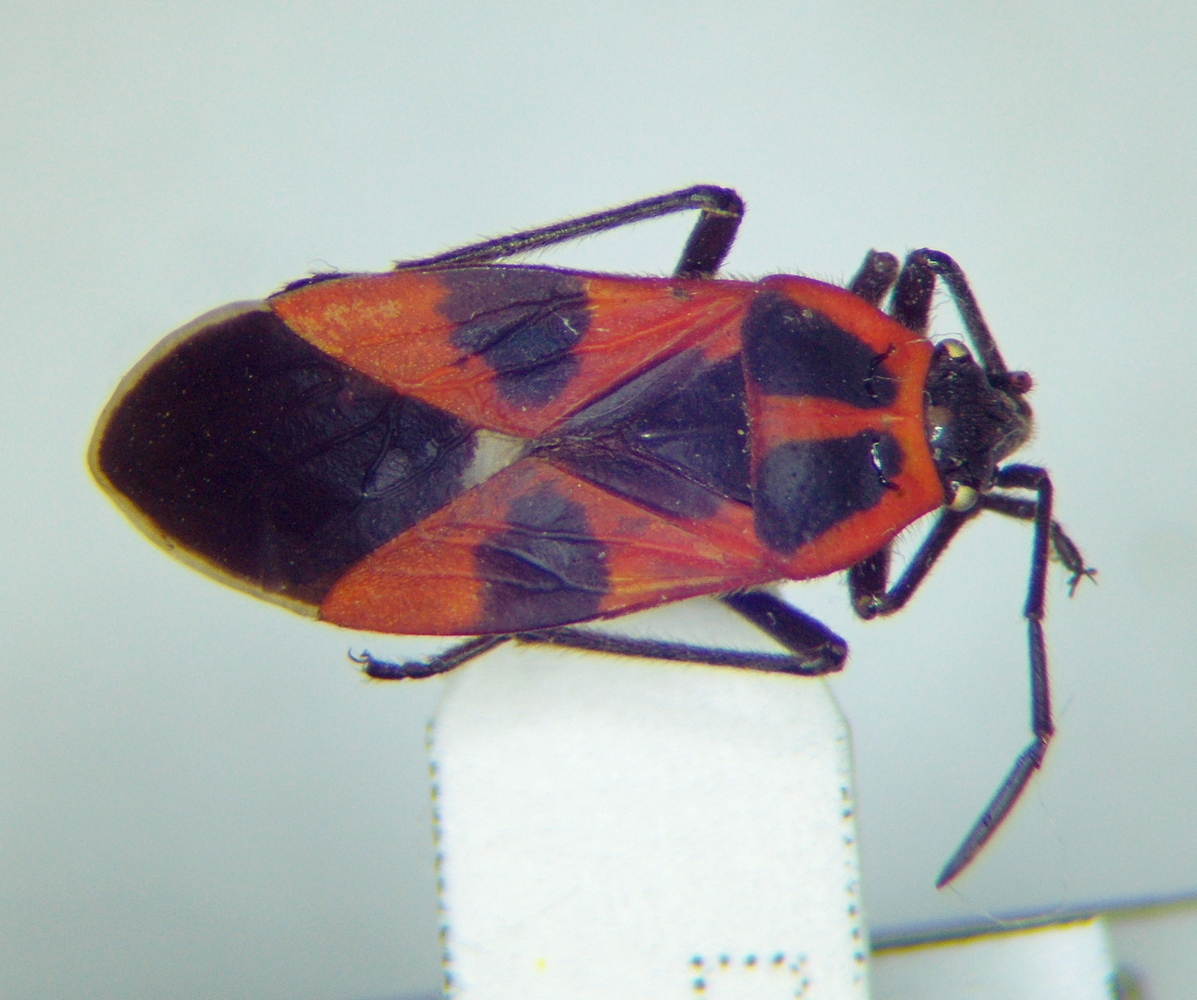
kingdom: Animalia
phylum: Arthropoda
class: Insecta
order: Hemiptera
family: Lygaeidae
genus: Tropidothorax
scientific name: Tropidothorax leucopterus
